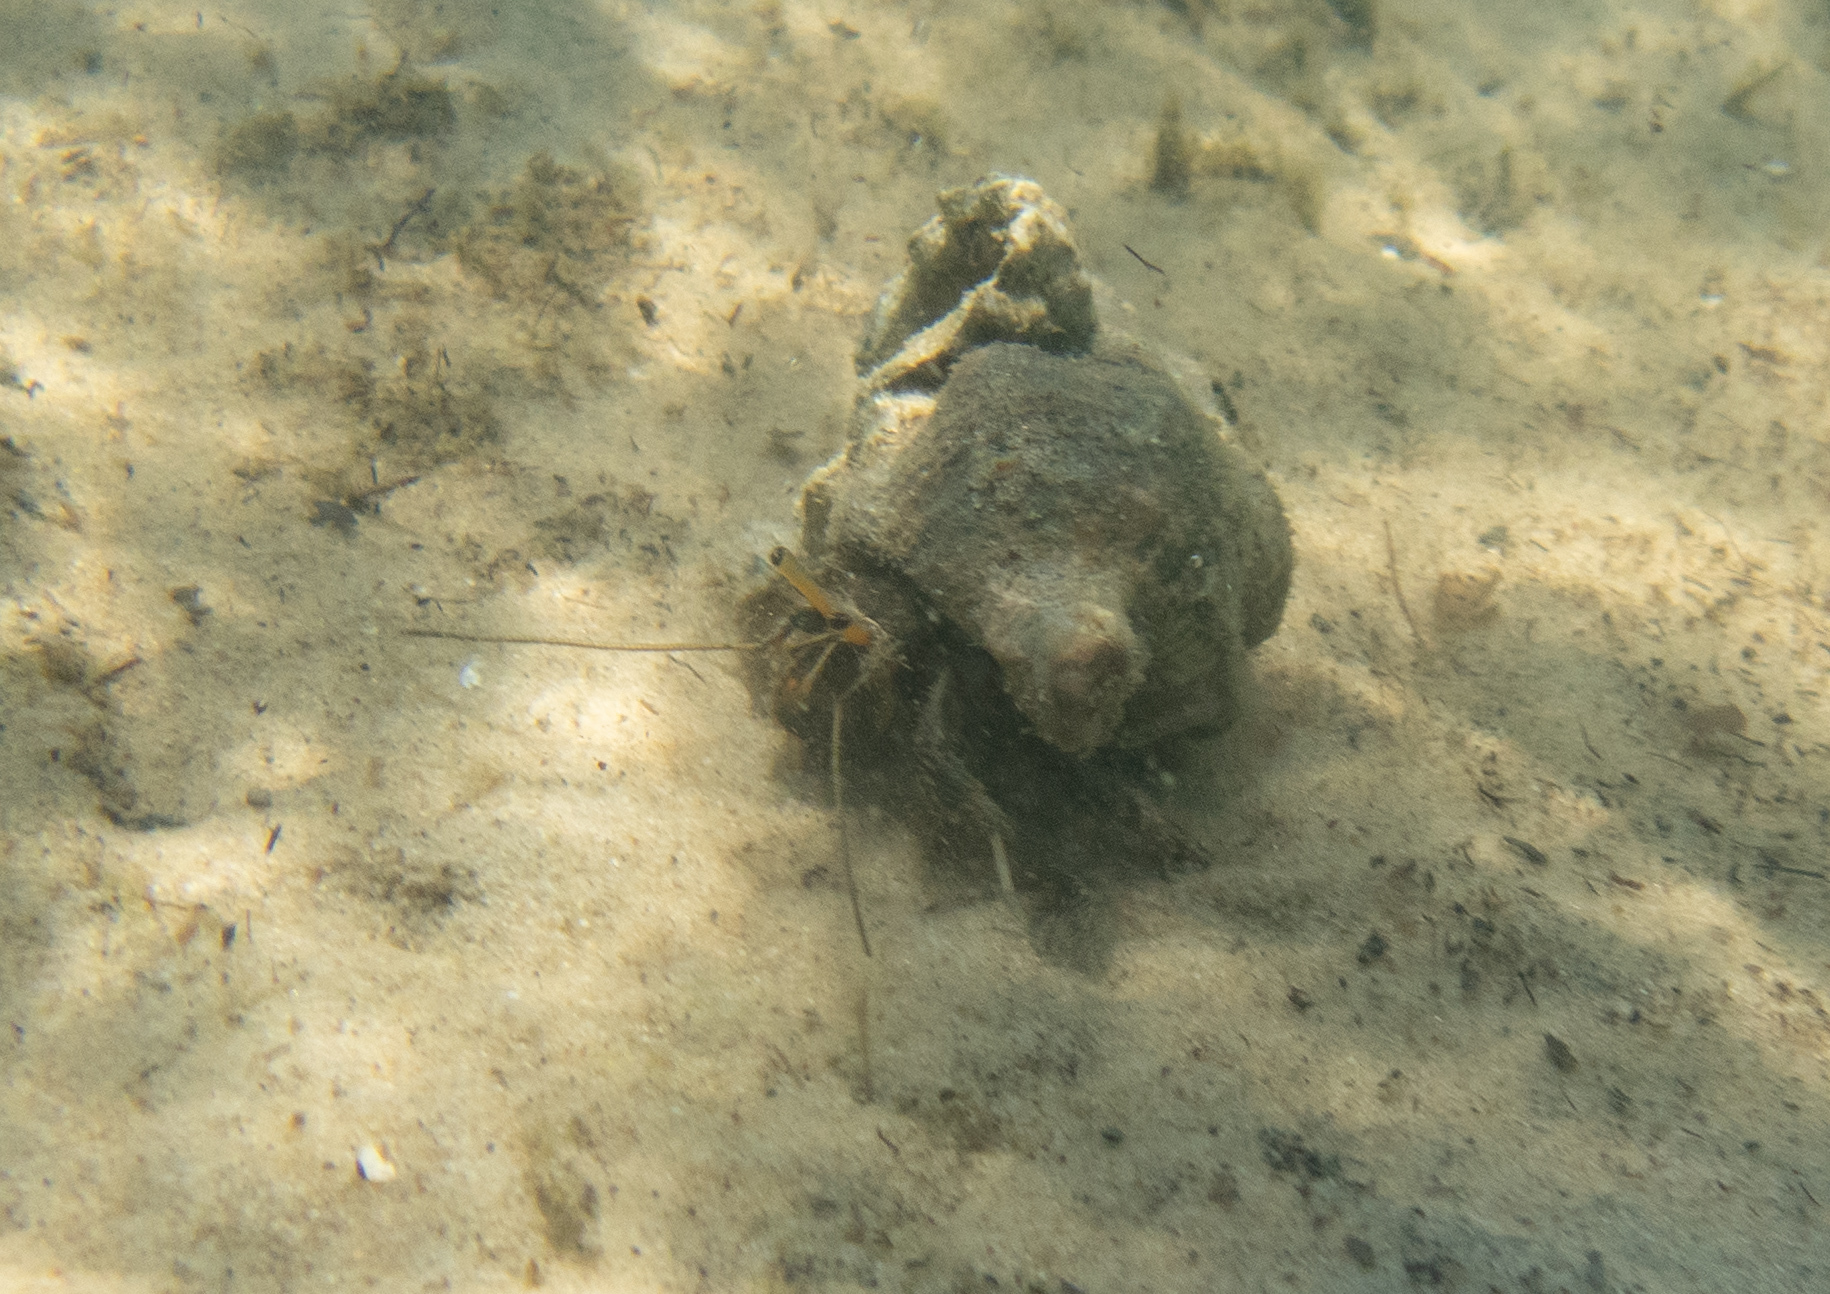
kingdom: Animalia
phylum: Arthropoda
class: Malacostraca
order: Decapoda
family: Diogenidae
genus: Clibanarius
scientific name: Clibanarius longitarsus
